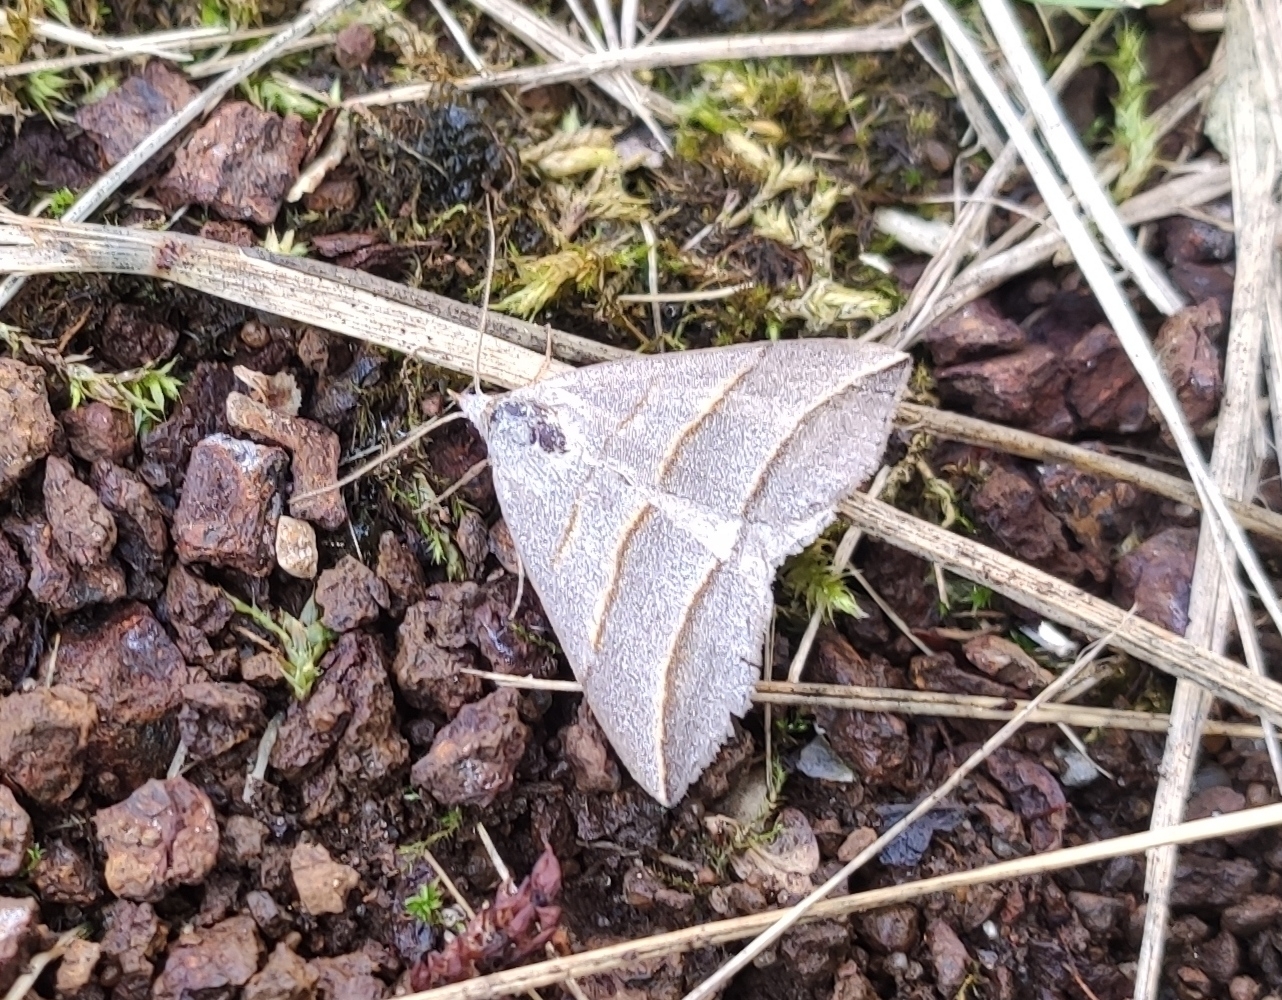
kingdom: Animalia
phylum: Arthropoda
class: Insecta
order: Lepidoptera
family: Erebidae
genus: Colobochyla
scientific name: Colobochyla salicalis
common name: Lesser belle
